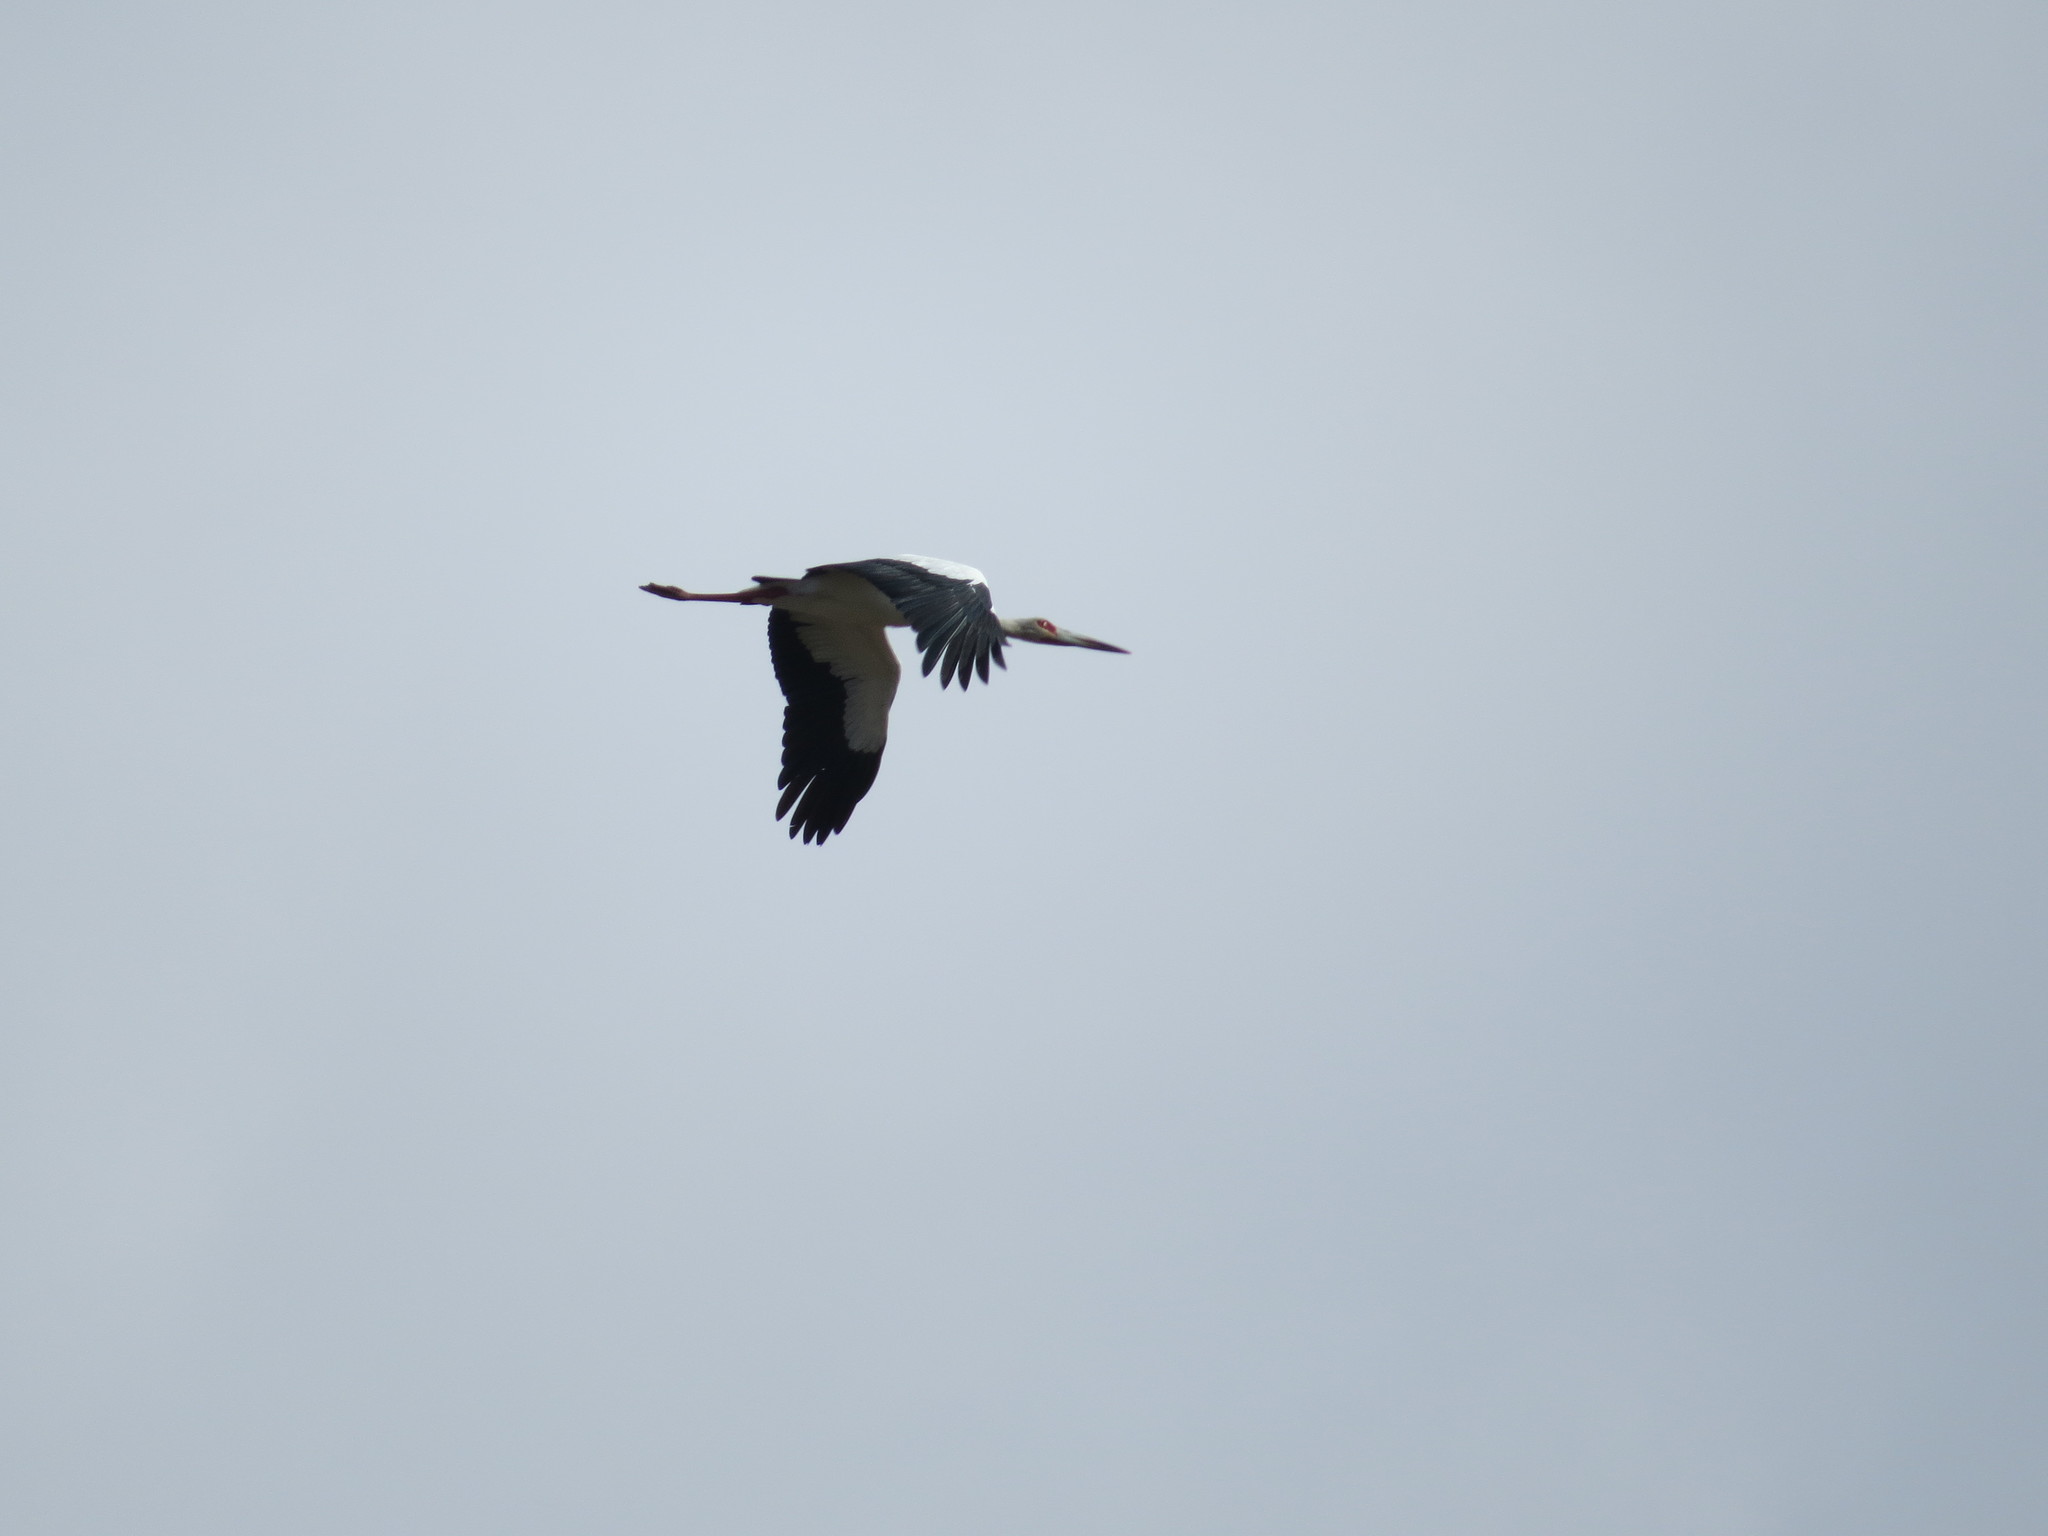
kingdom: Animalia
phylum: Chordata
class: Aves
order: Ciconiiformes
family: Ciconiidae
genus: Ciconia
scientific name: Ciconia maguari
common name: Maguari stork
